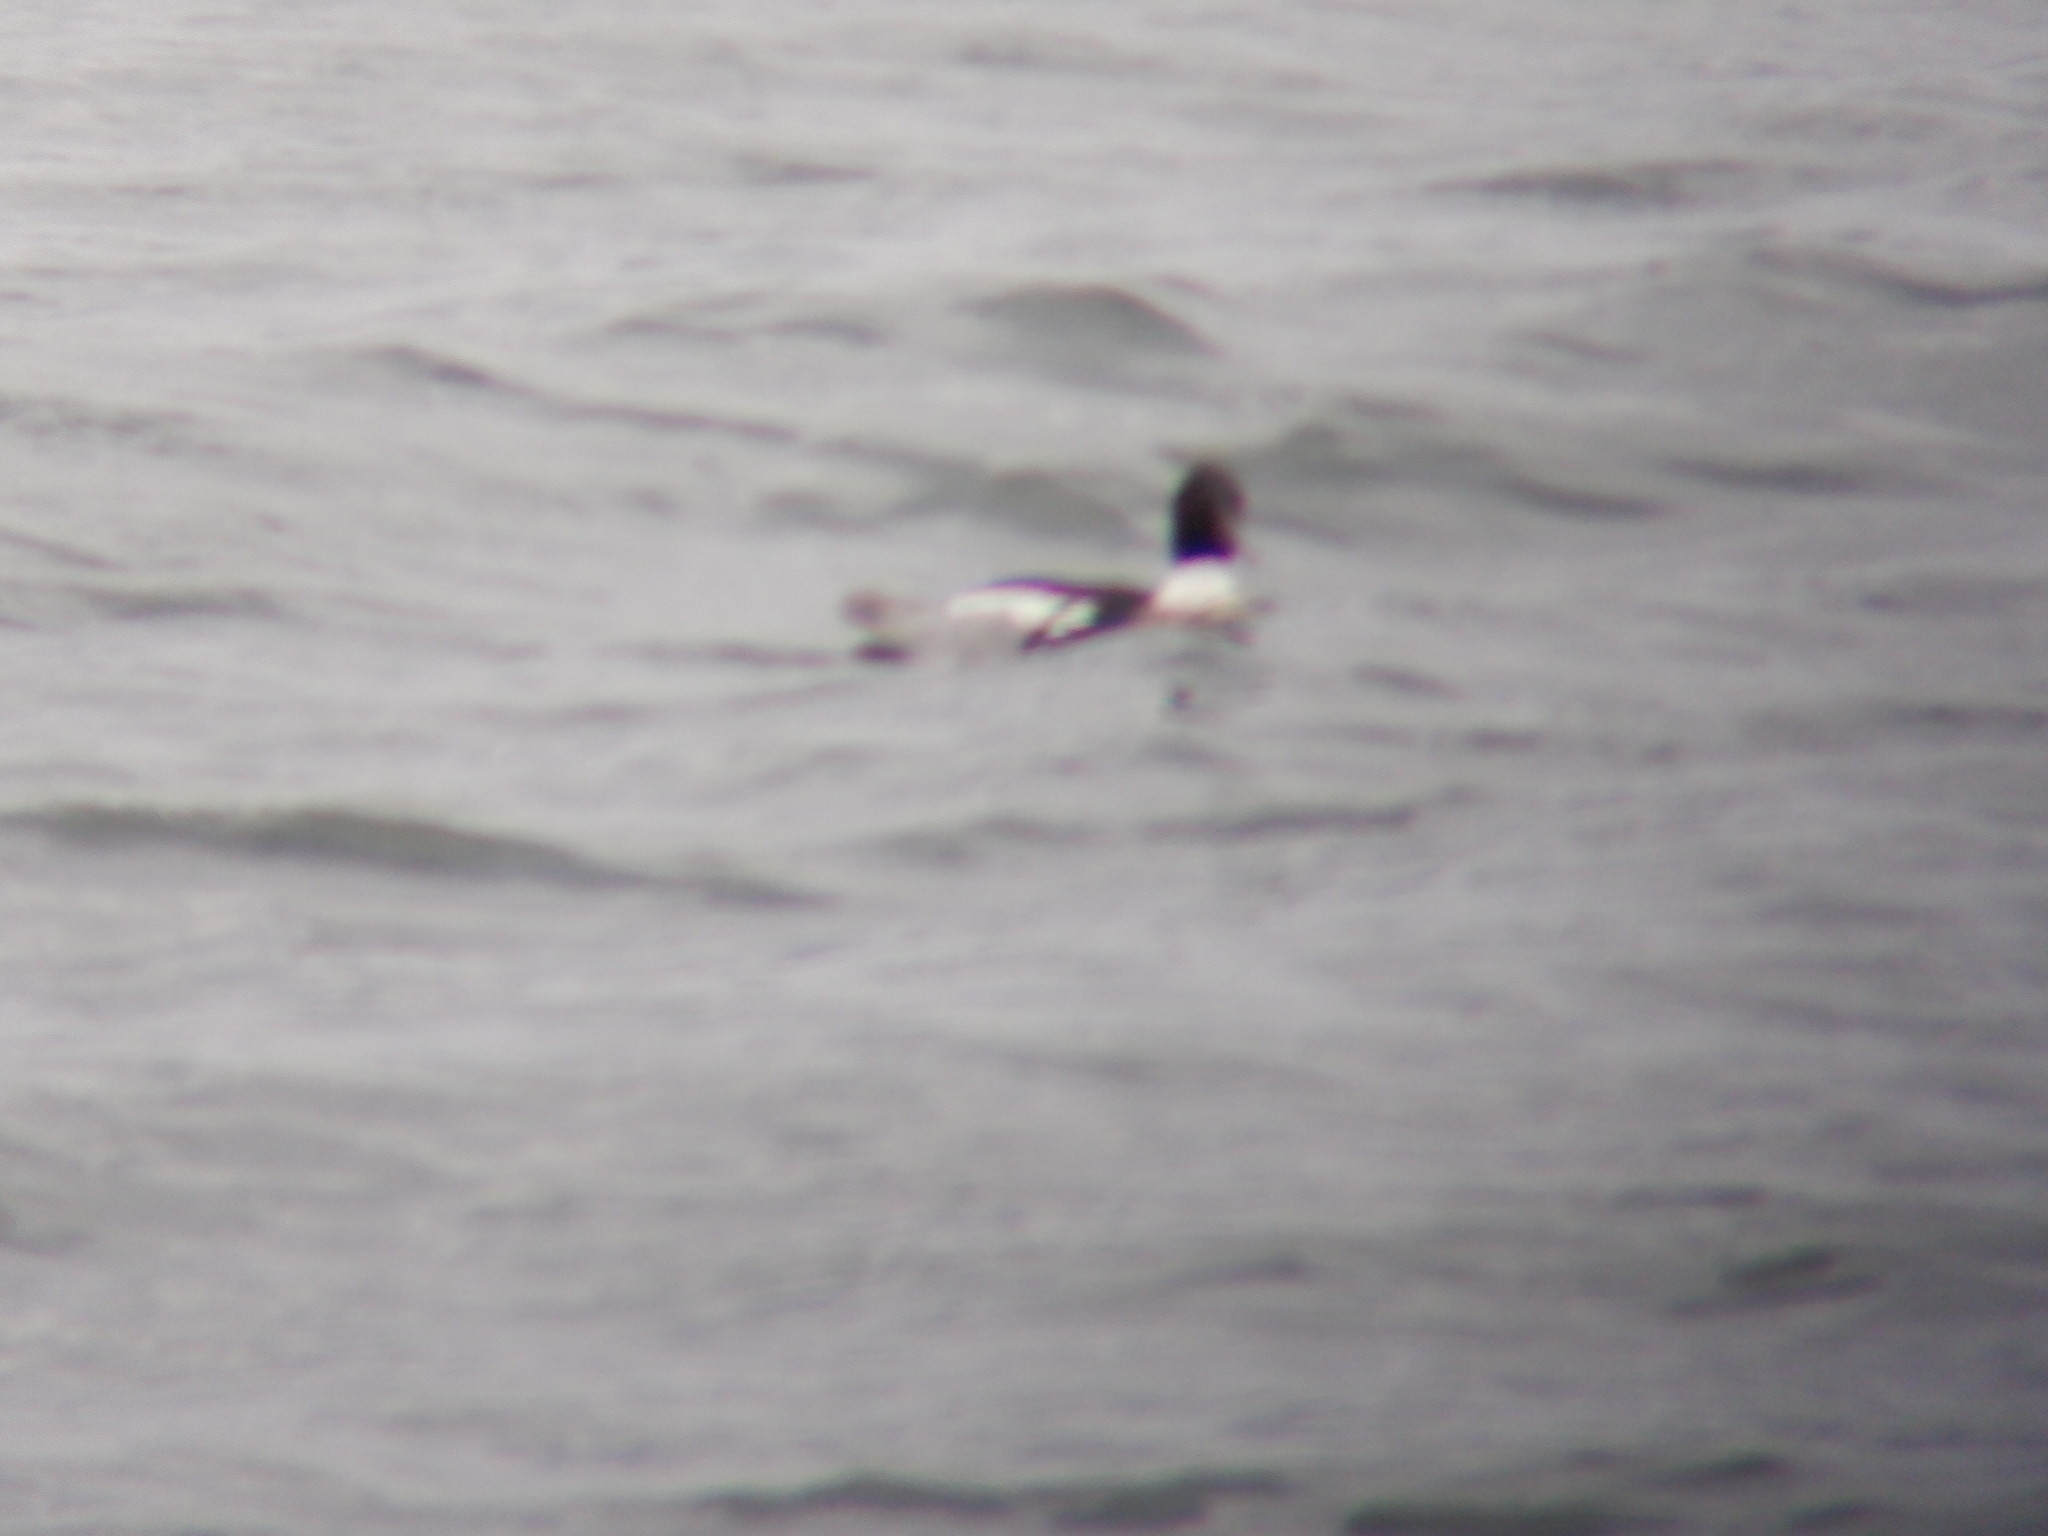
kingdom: Animalia
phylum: Chordata
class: Aves
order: Anseriformes
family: Anatidae
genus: Mergus
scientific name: Mergus serrator
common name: Red-breasted merganser
